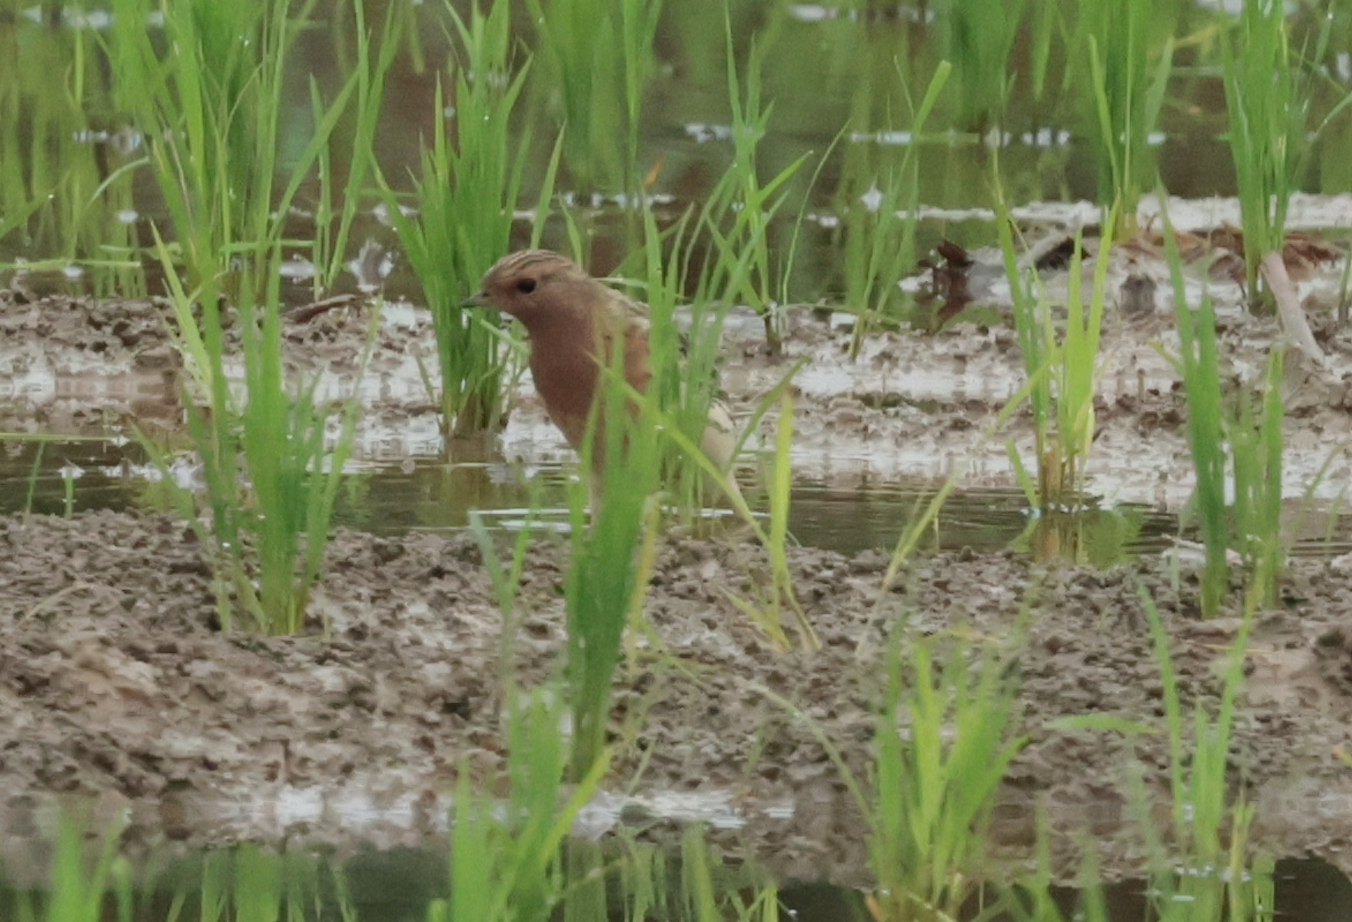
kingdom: Animalia
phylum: Chordata
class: Aves
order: Passeriformes
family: Motacillidae
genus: Anthus
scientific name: Anthus cervinus
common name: Red-throated pipit
